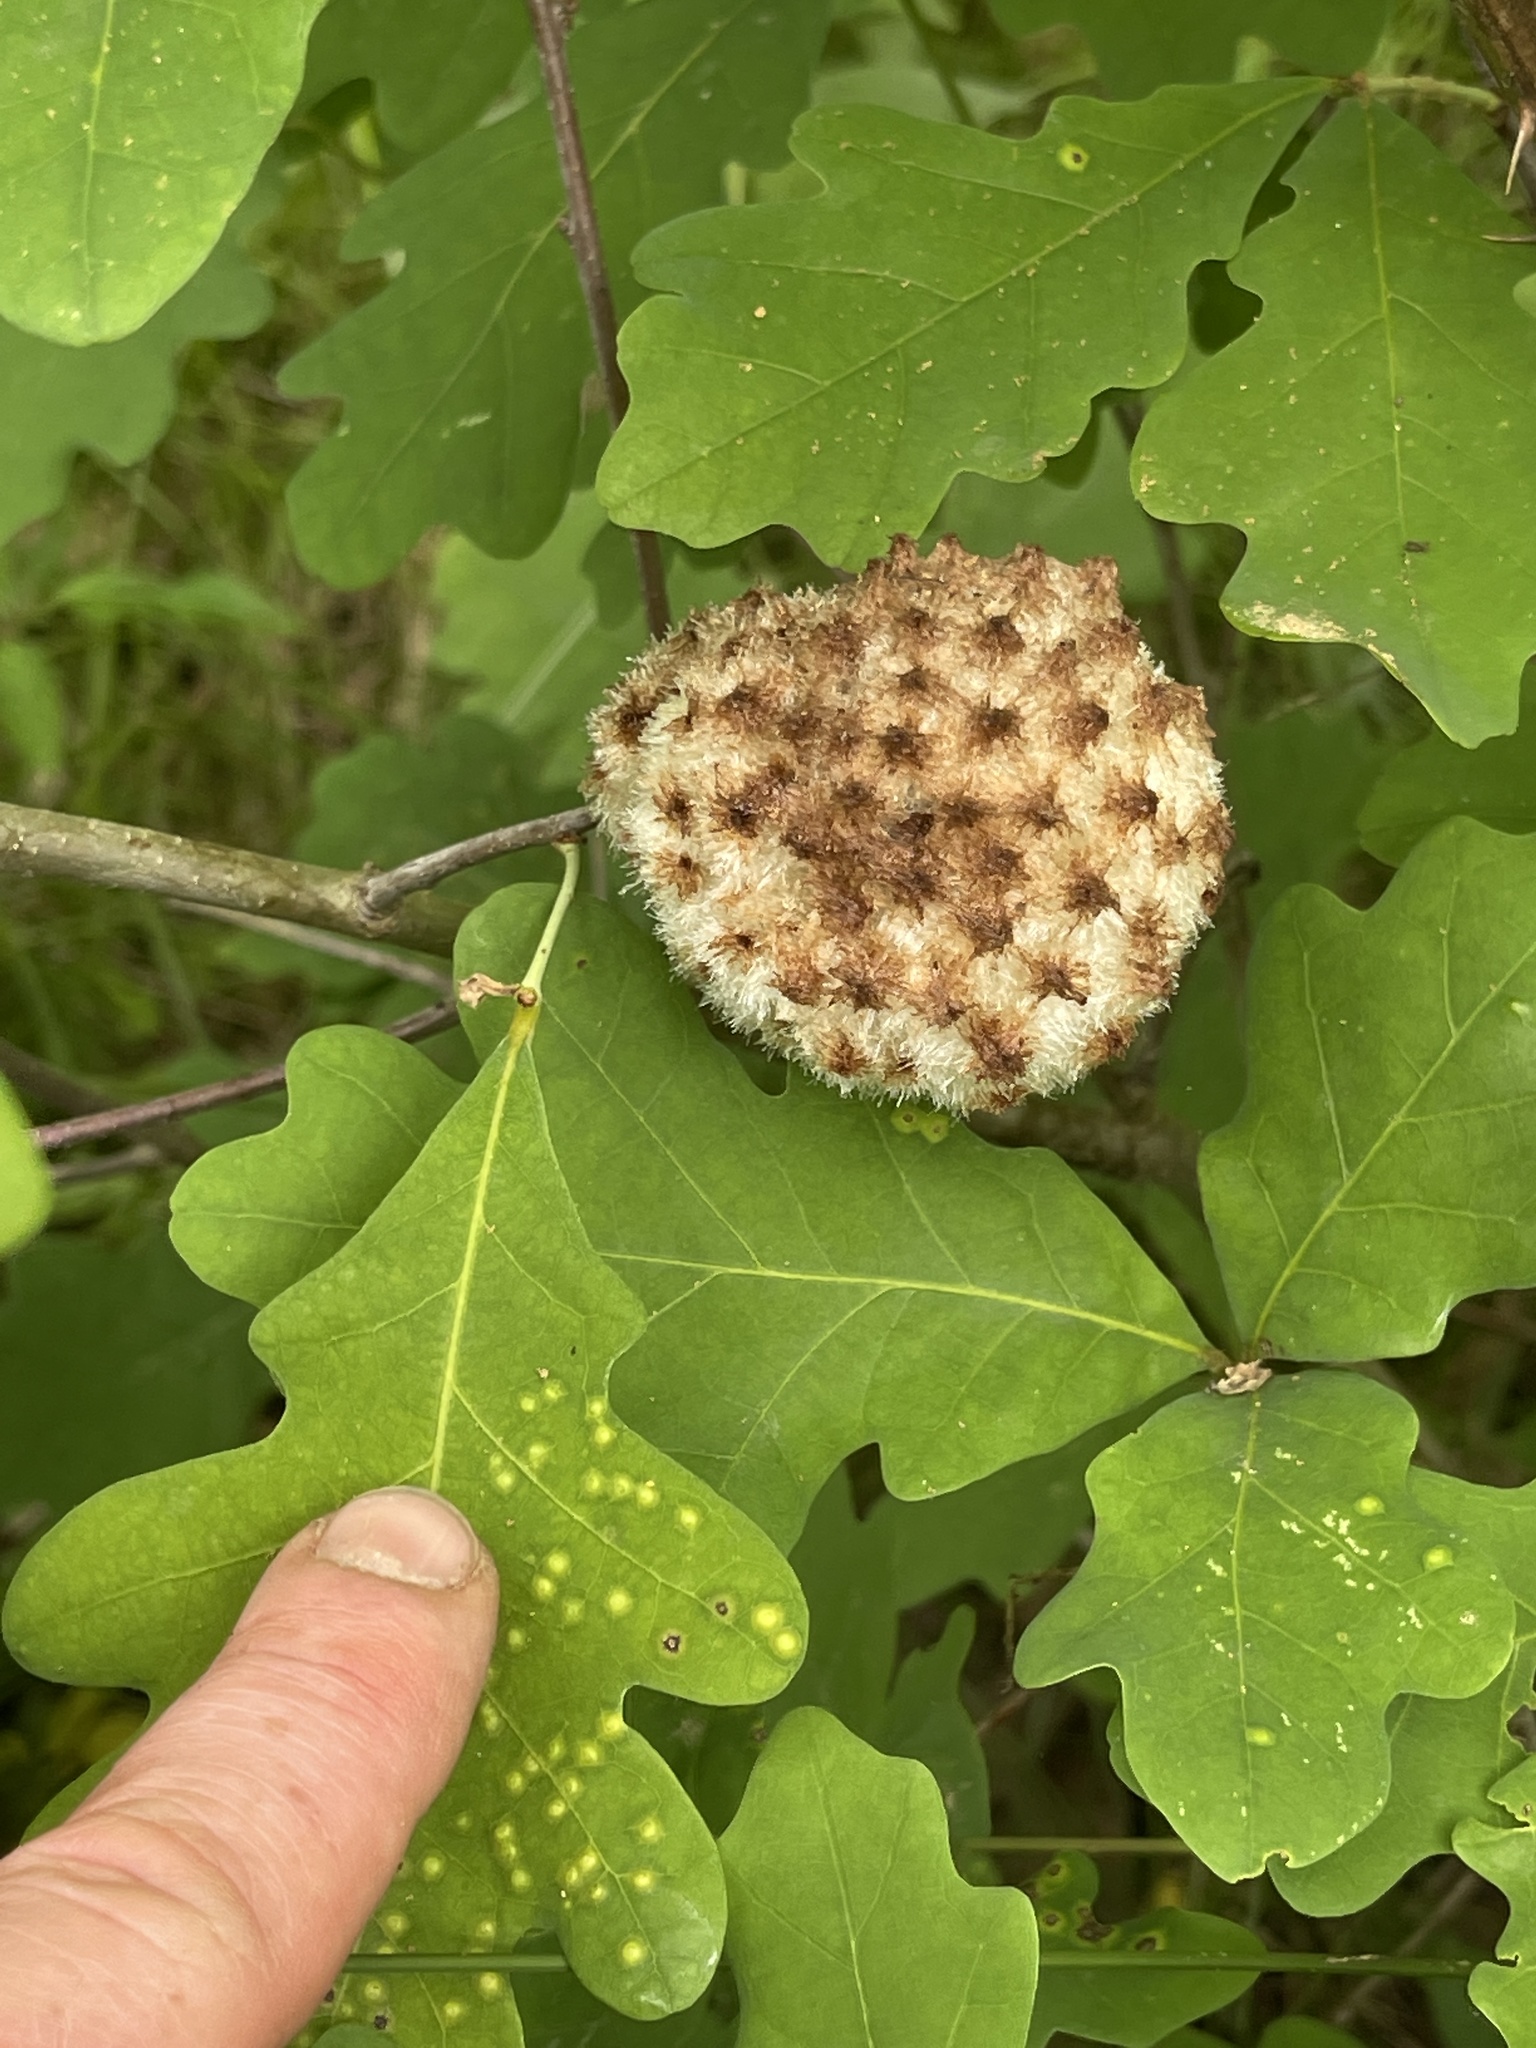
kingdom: Animalia
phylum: Arthropoda
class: Insecta
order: Hymenoptera
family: Cynipidae
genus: Callirhytis
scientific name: Callirhytis
